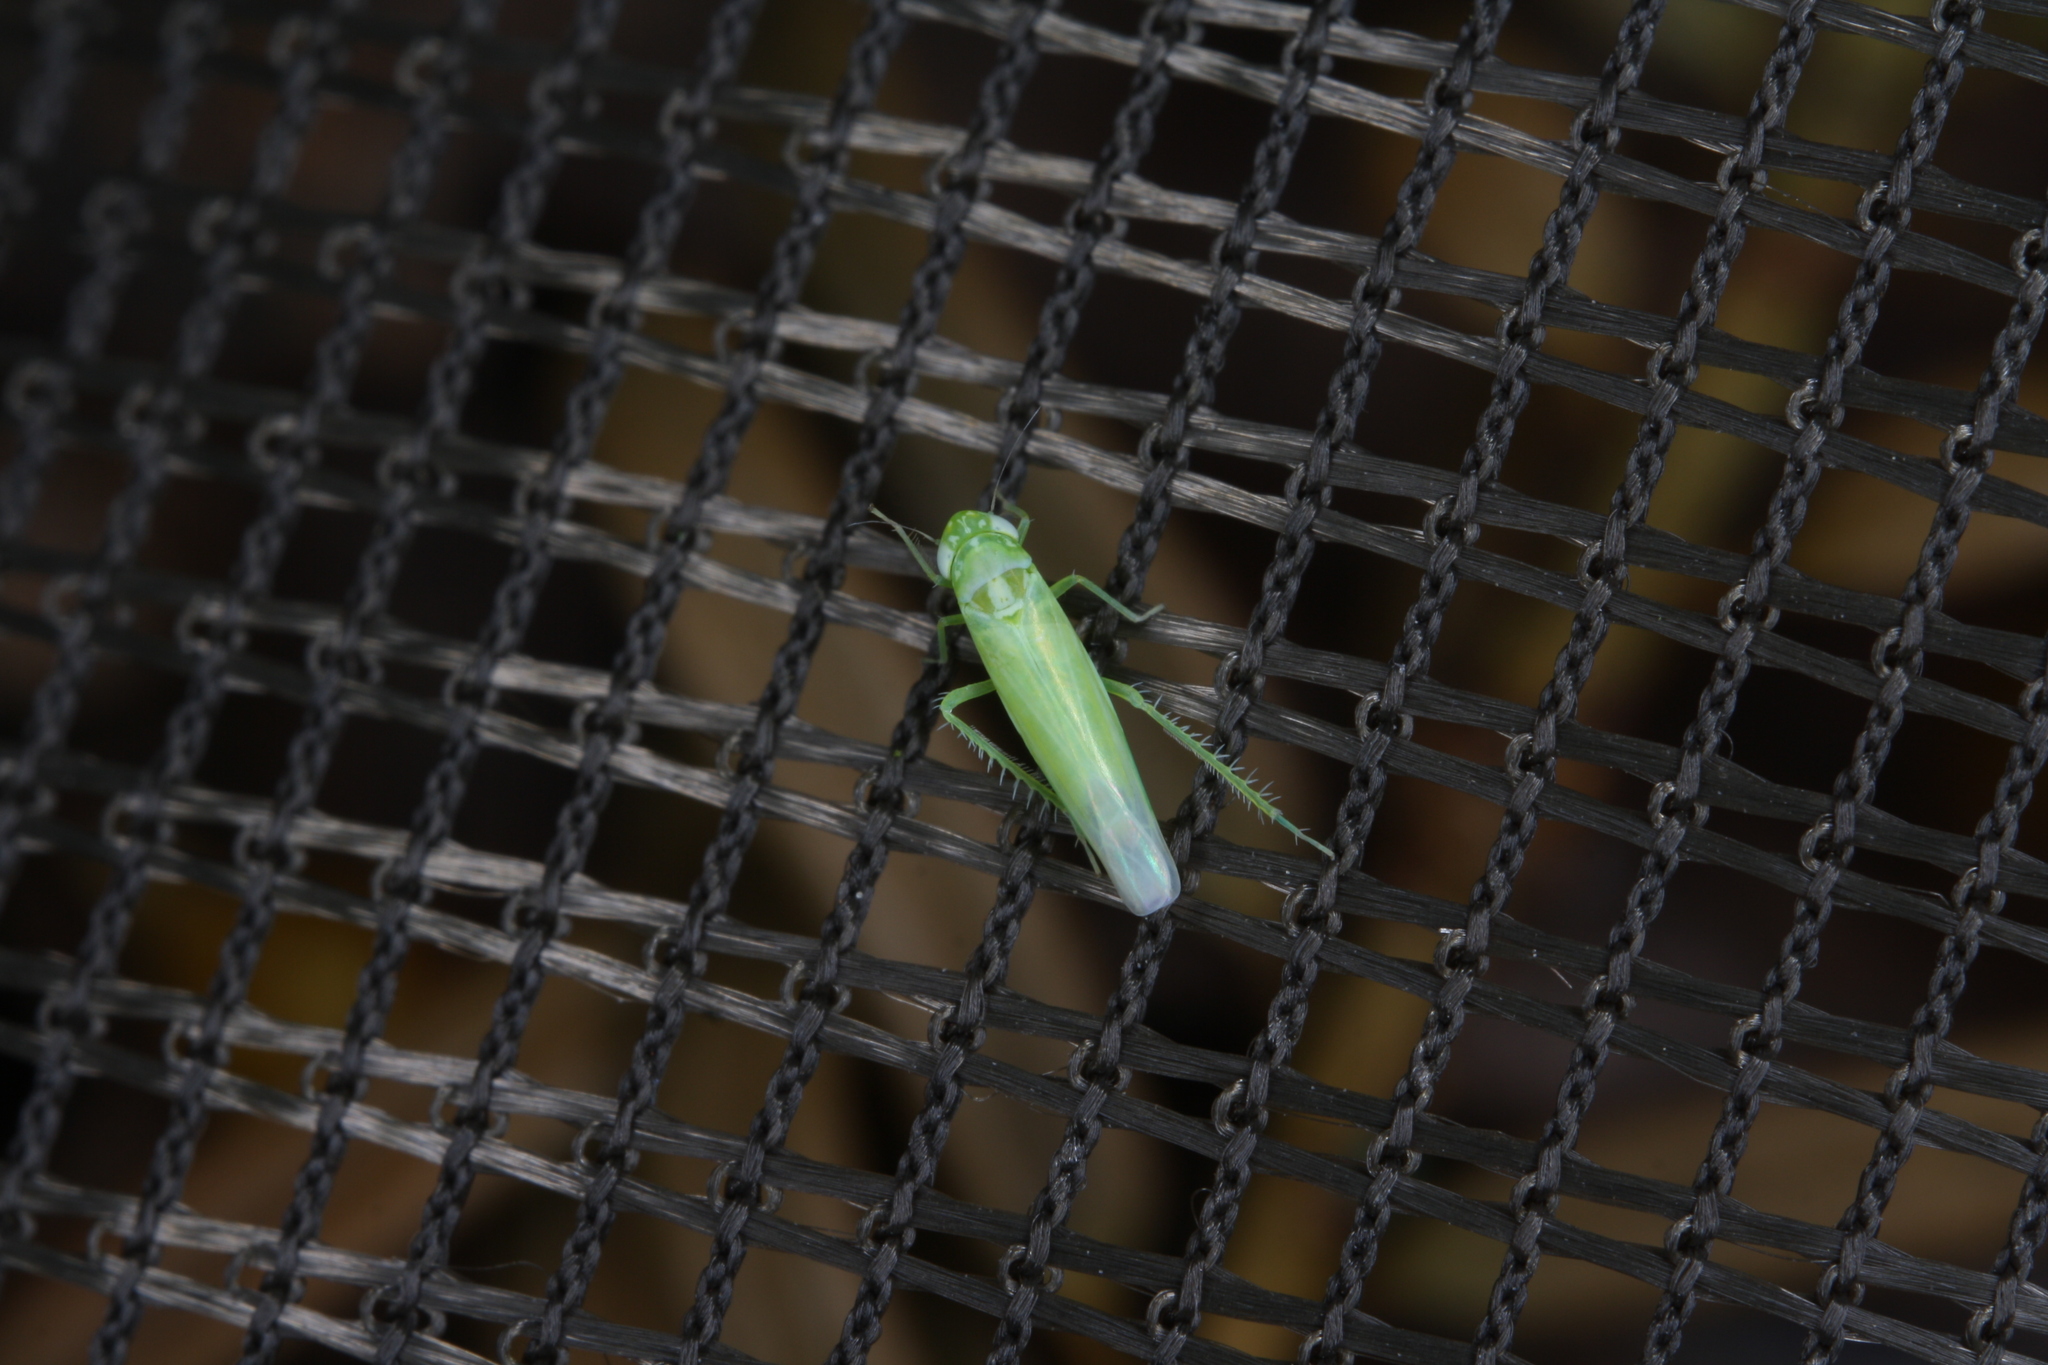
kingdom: Animalia
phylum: Arthropoda
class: Insecta
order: Hemiptera
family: Cicadellidae
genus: Hebata
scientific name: Hebata vitis
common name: The smaller green leafhopper
